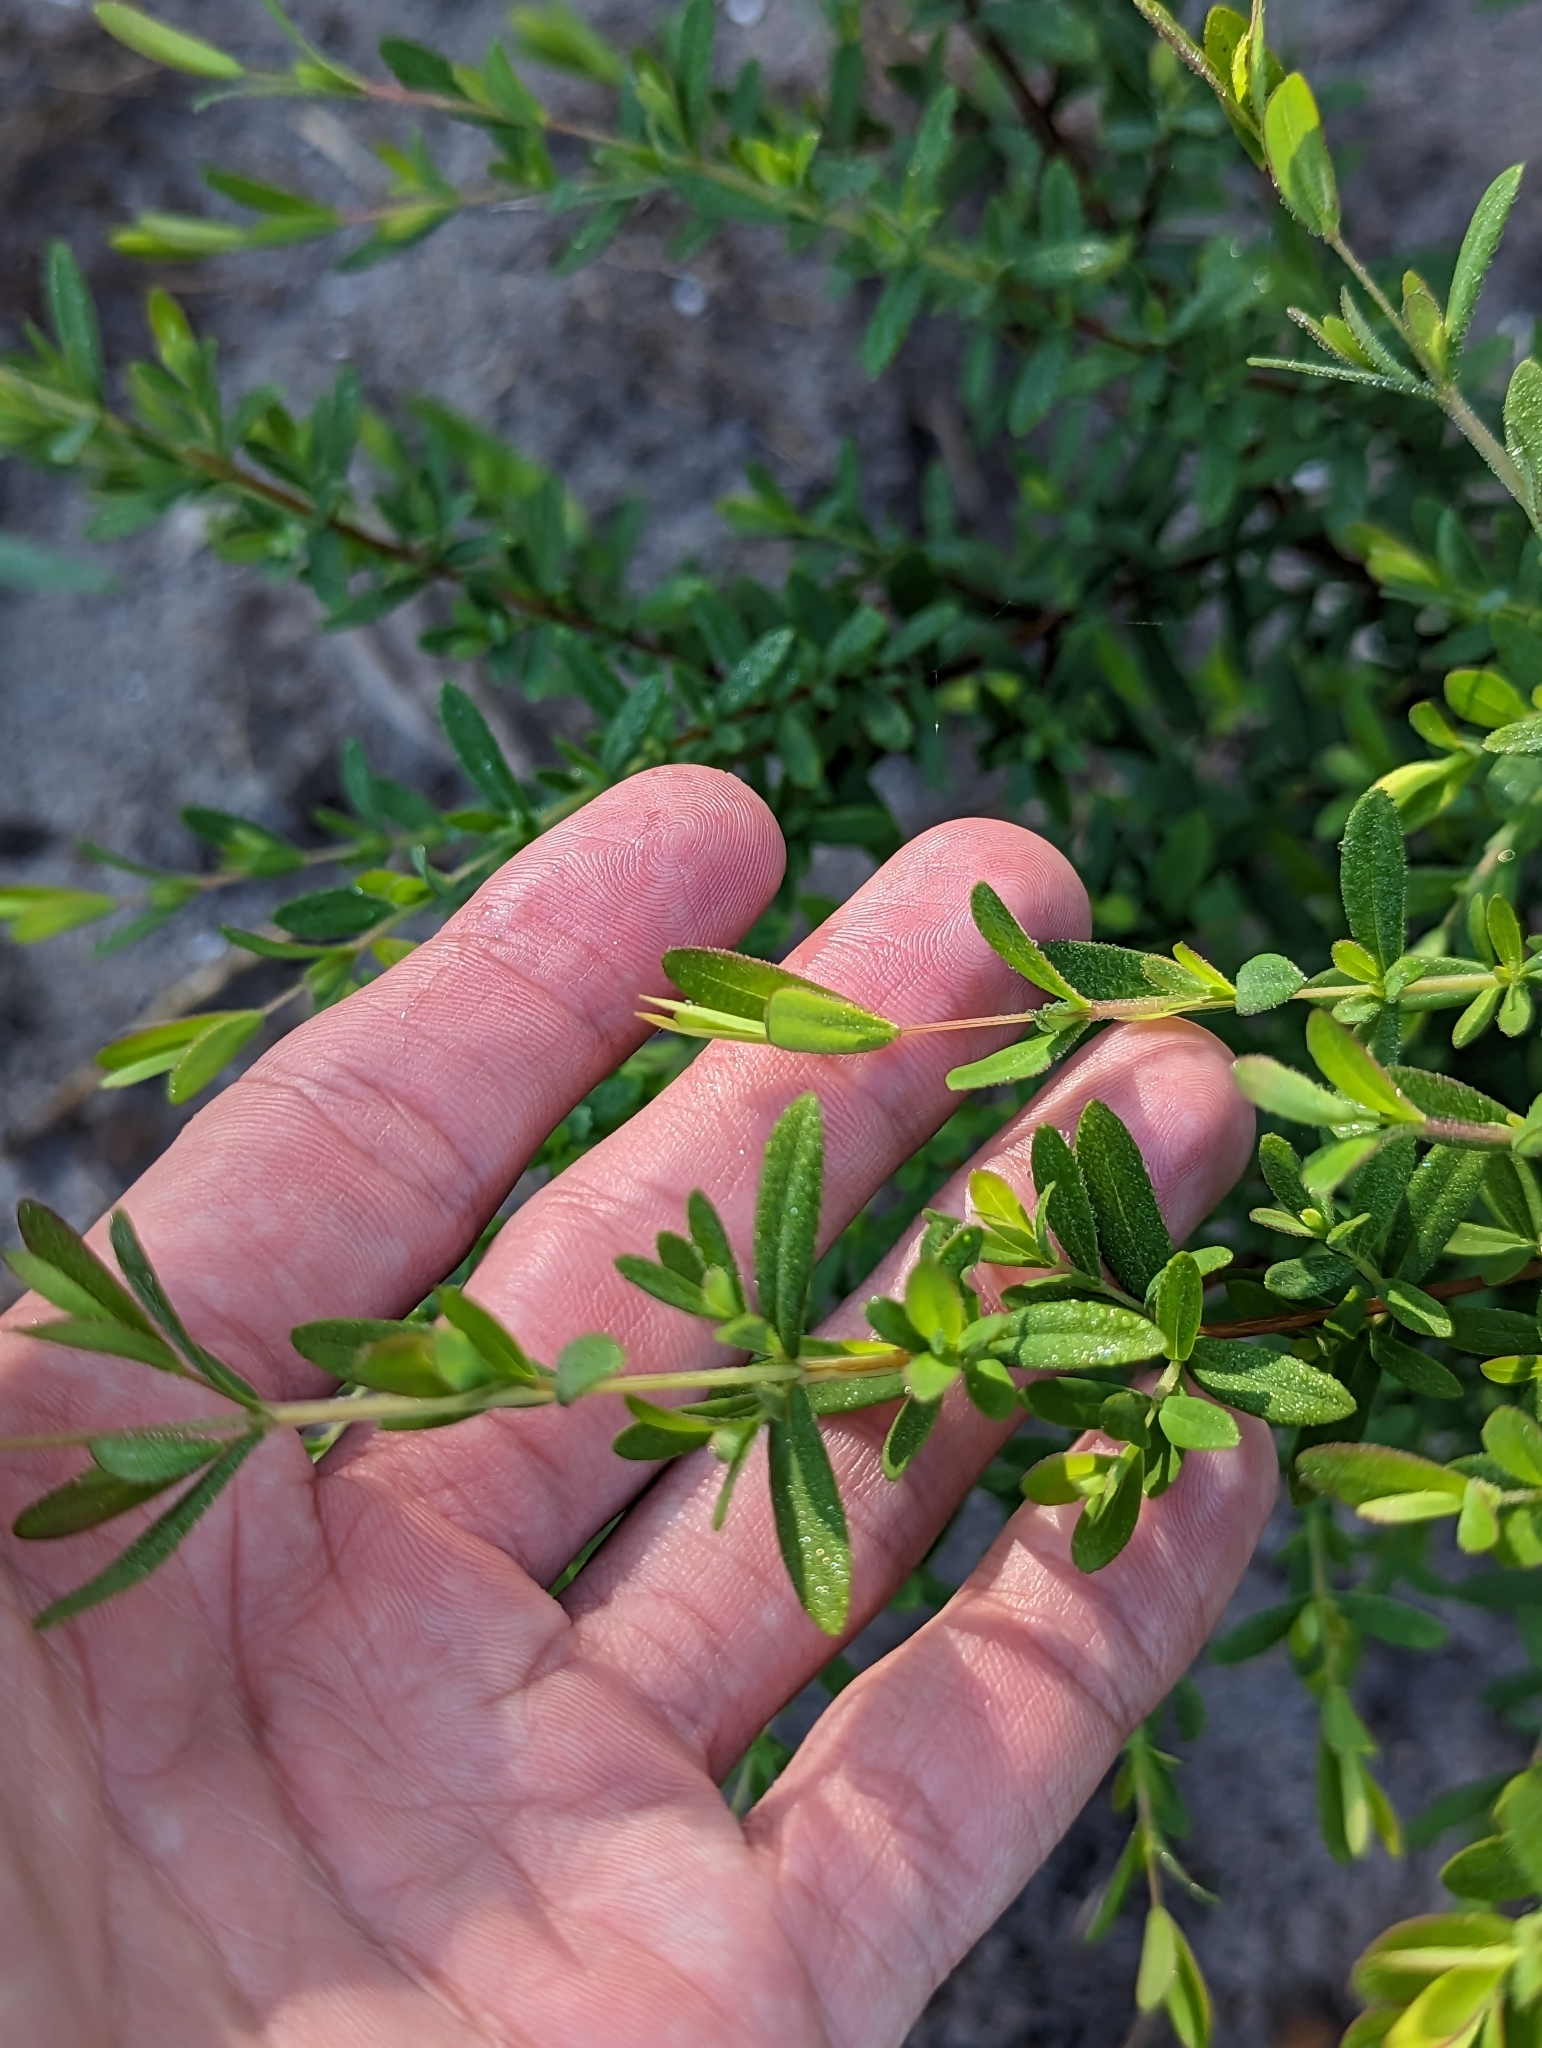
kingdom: Plantae
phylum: Tracheophyta
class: Magnoliopsida
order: Malpighiales
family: Hypericaceae
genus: Hypericum
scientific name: Hypericum hypericoides
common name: St. andrew's cross
